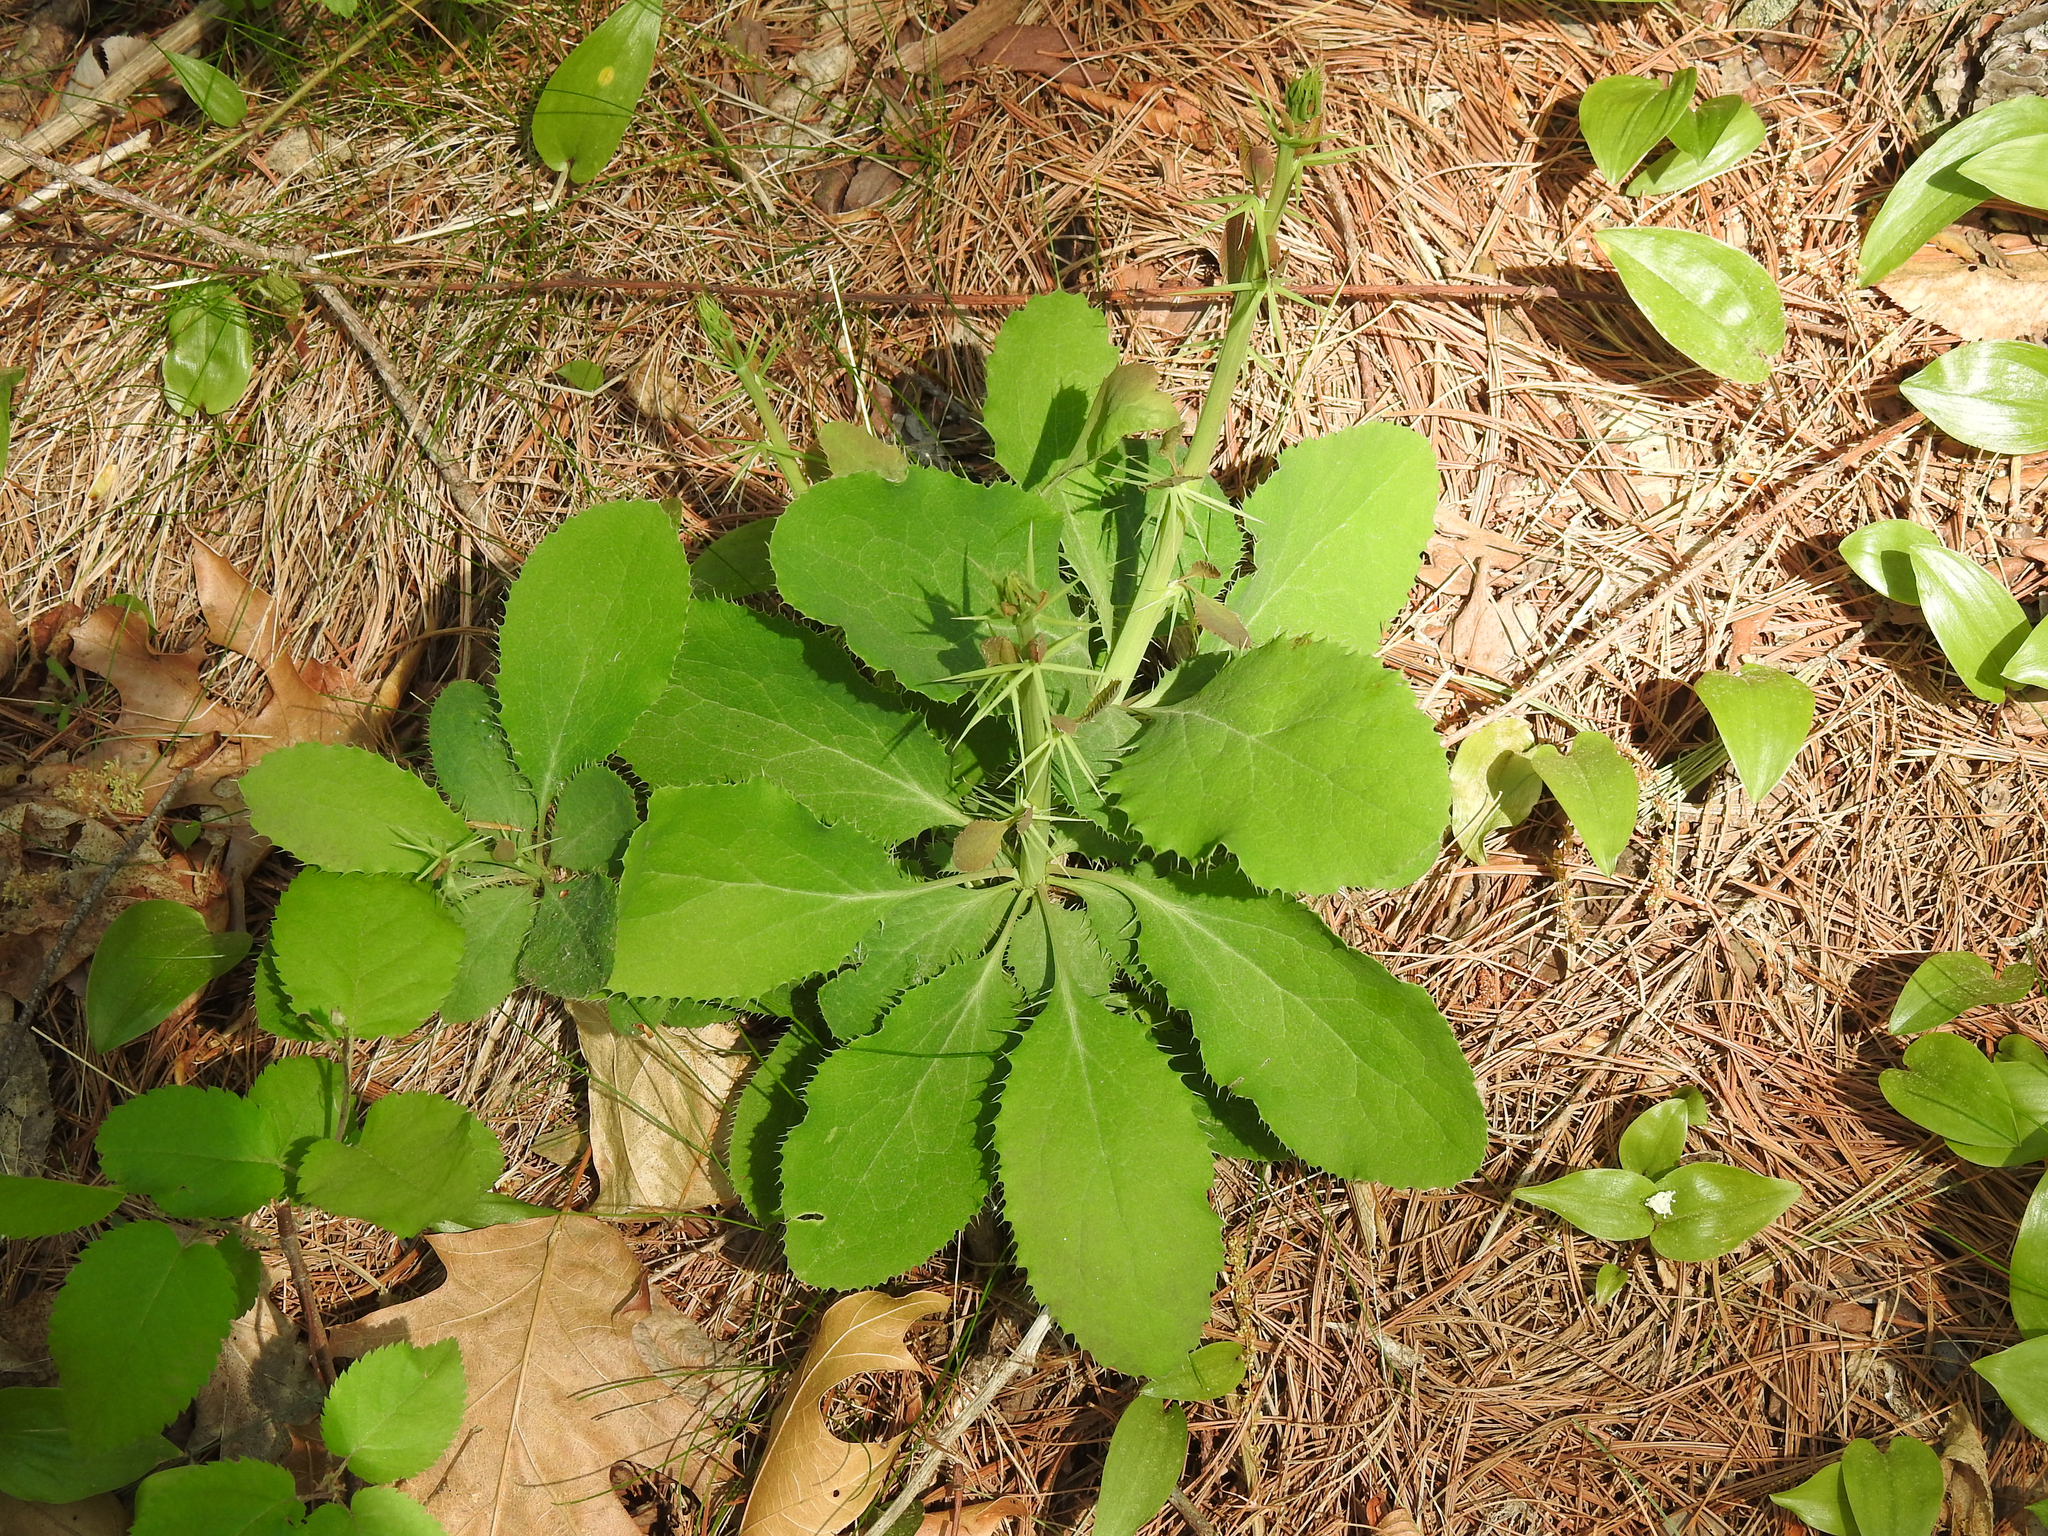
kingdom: Plantae
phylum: Tracheophyta
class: Magnoliopsida
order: Ranunculales
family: Berberidaceae
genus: Berberis
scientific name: Berberis vulgaris
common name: Barberry
